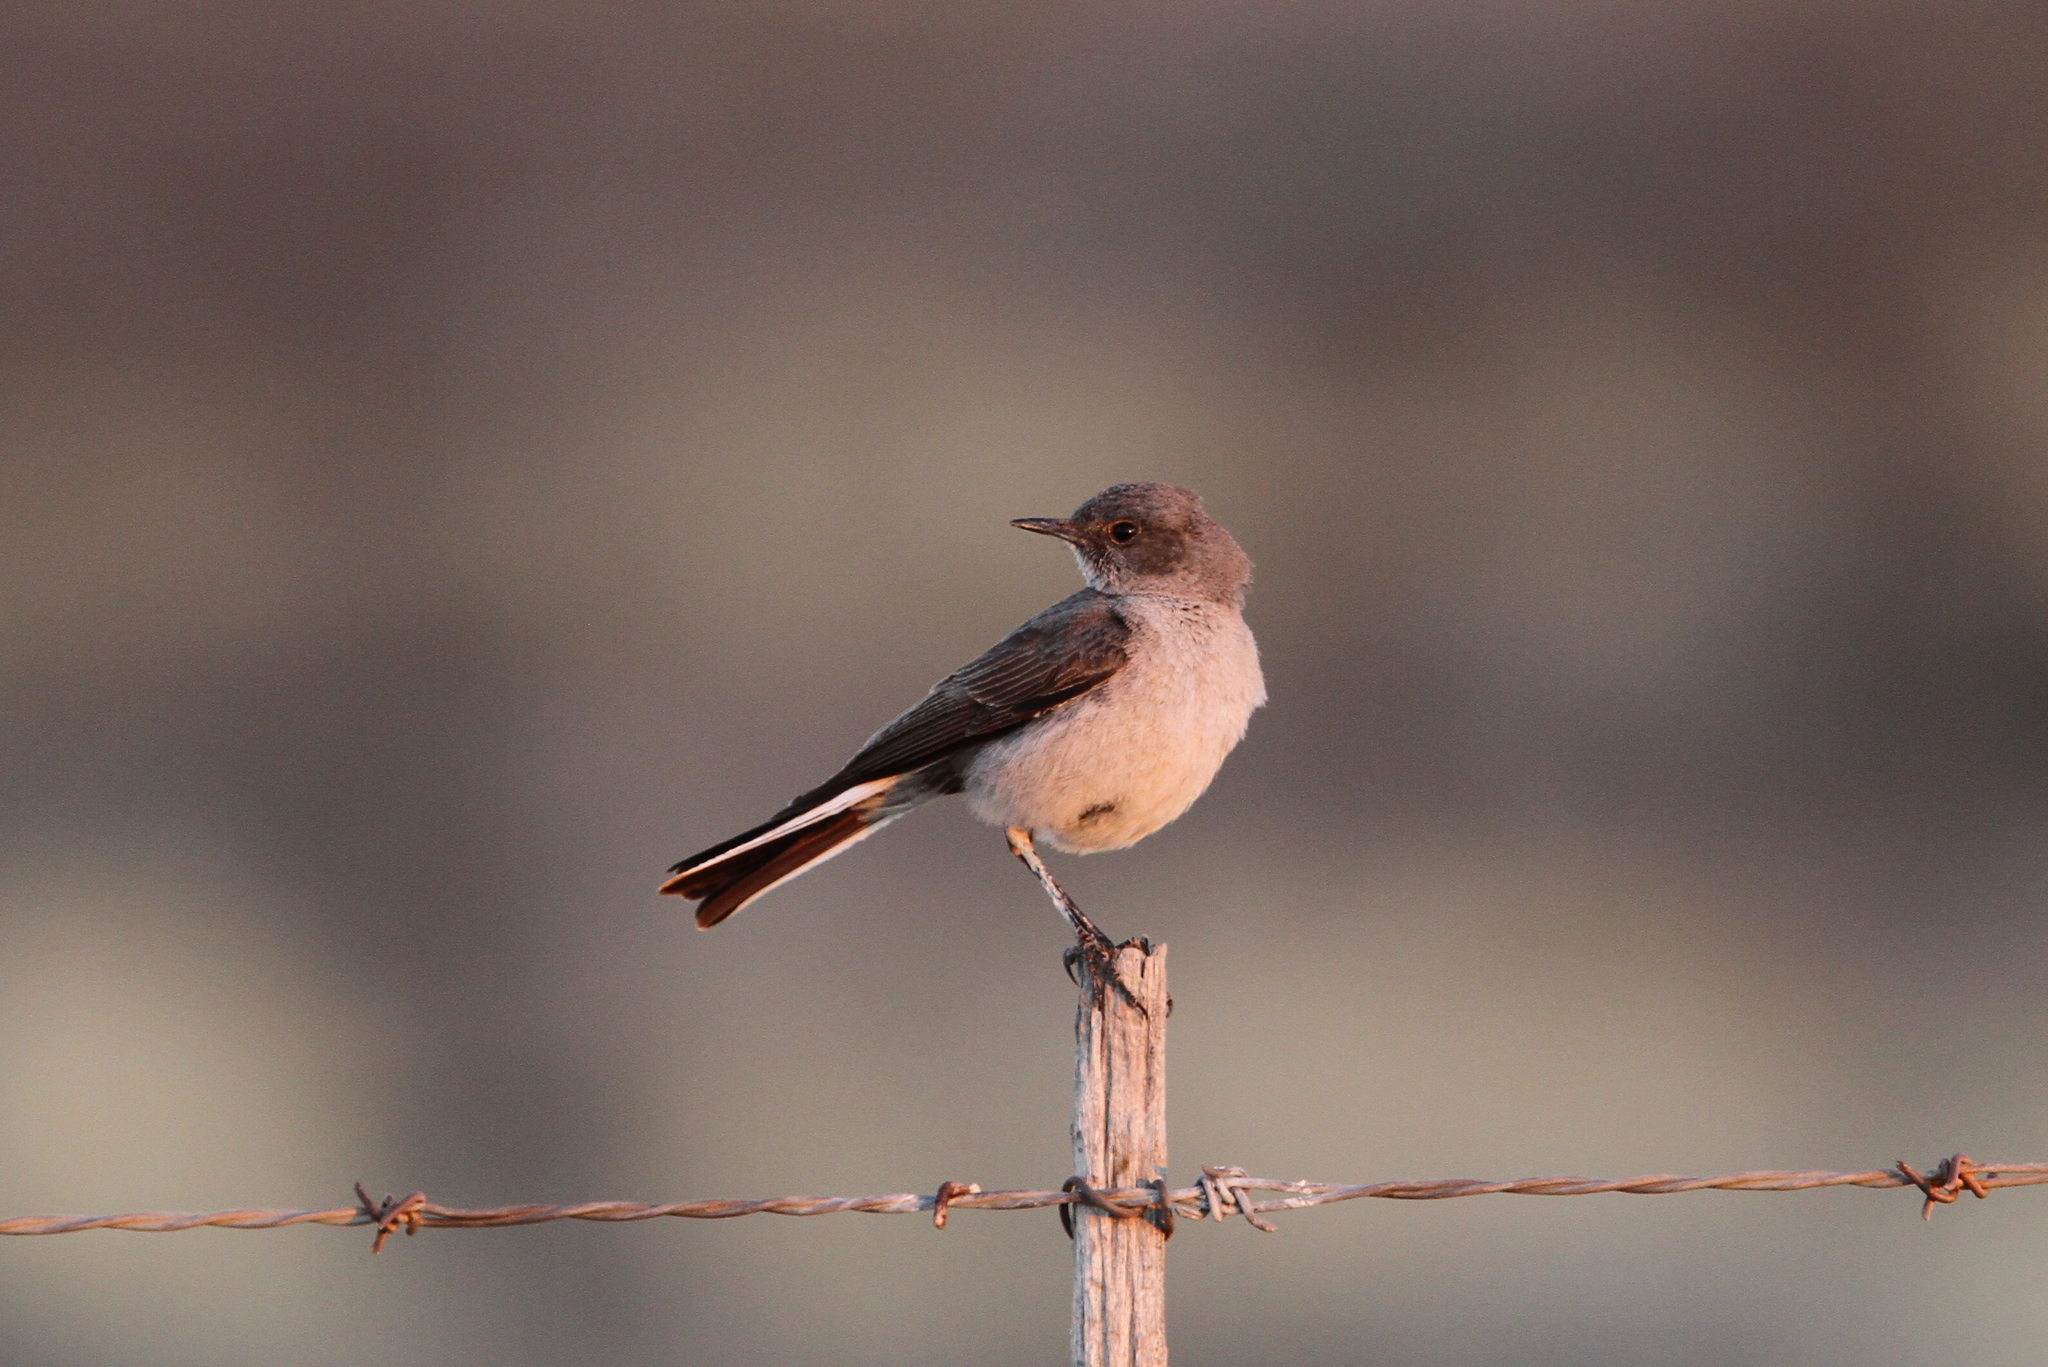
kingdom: Animalia
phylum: Chordata
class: Aves
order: Passeriformes
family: Muscicapidae
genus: Emarginata
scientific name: Emarginata schlegelii
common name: Karoo chat
